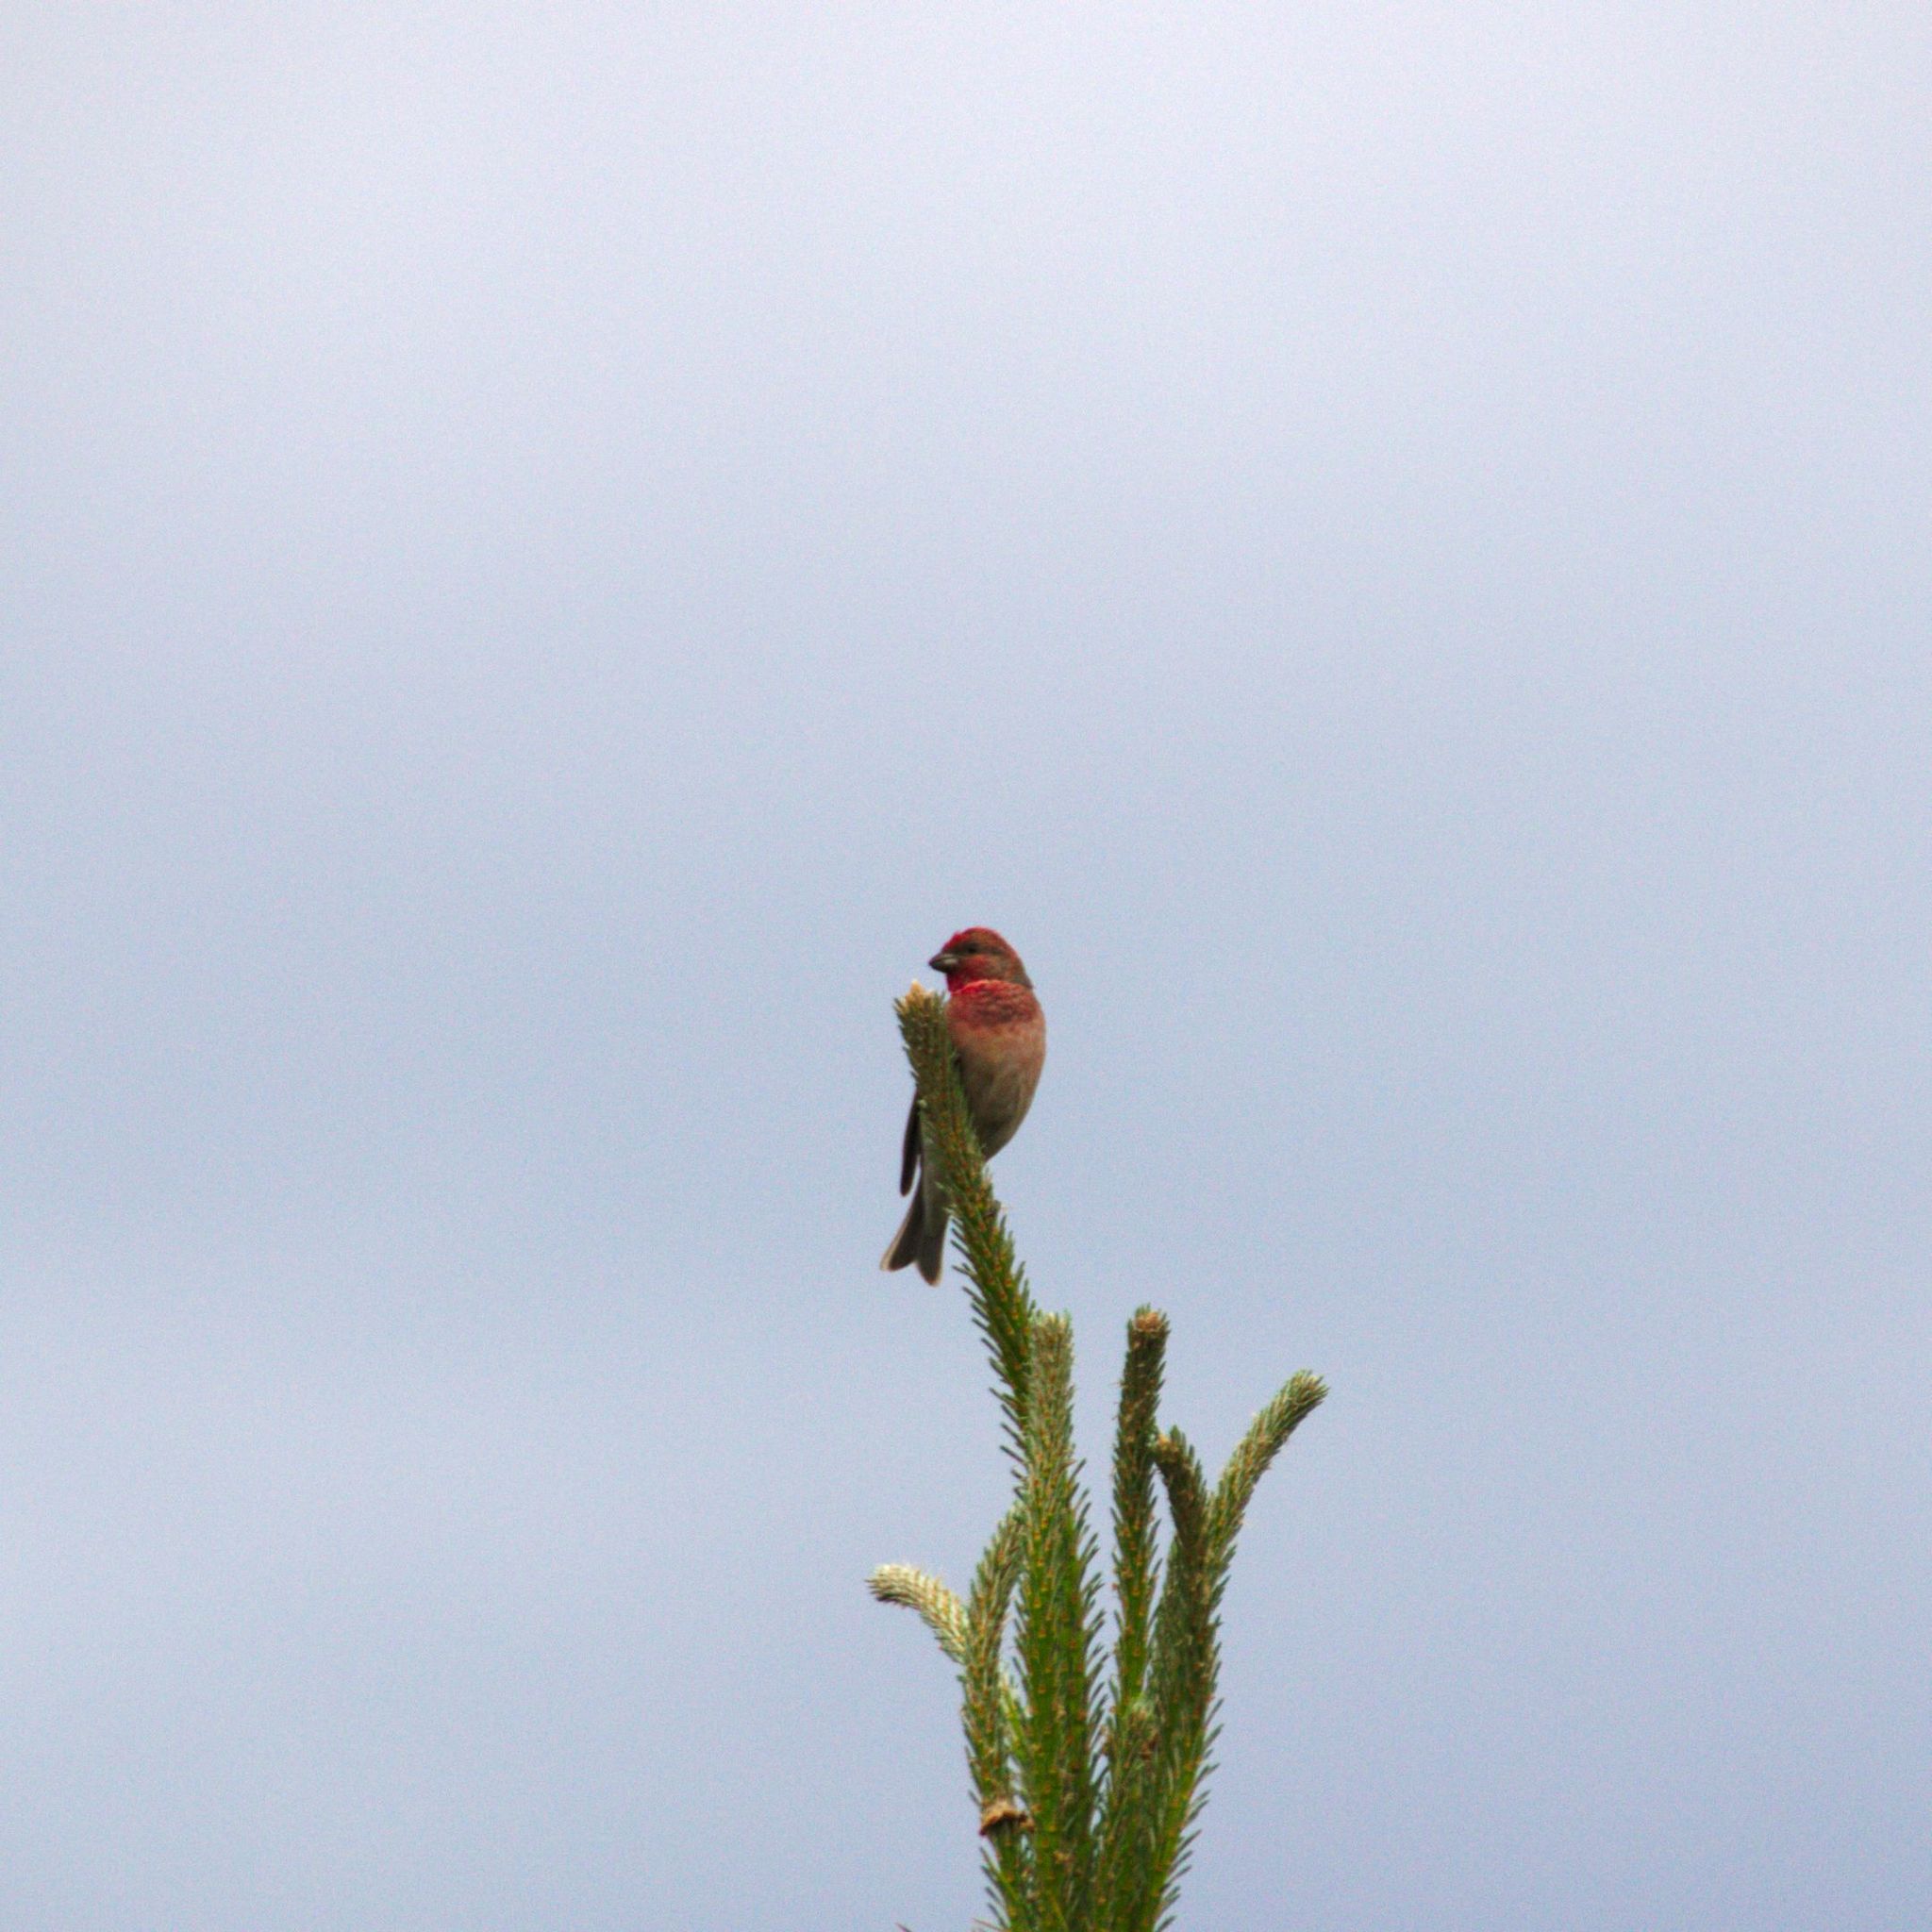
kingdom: Animalia
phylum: Chordata
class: Aves
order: Passeriformes
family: Fringillidae
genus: Carpodacus
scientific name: Carpodacus erythrinus
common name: Common rosefinch
